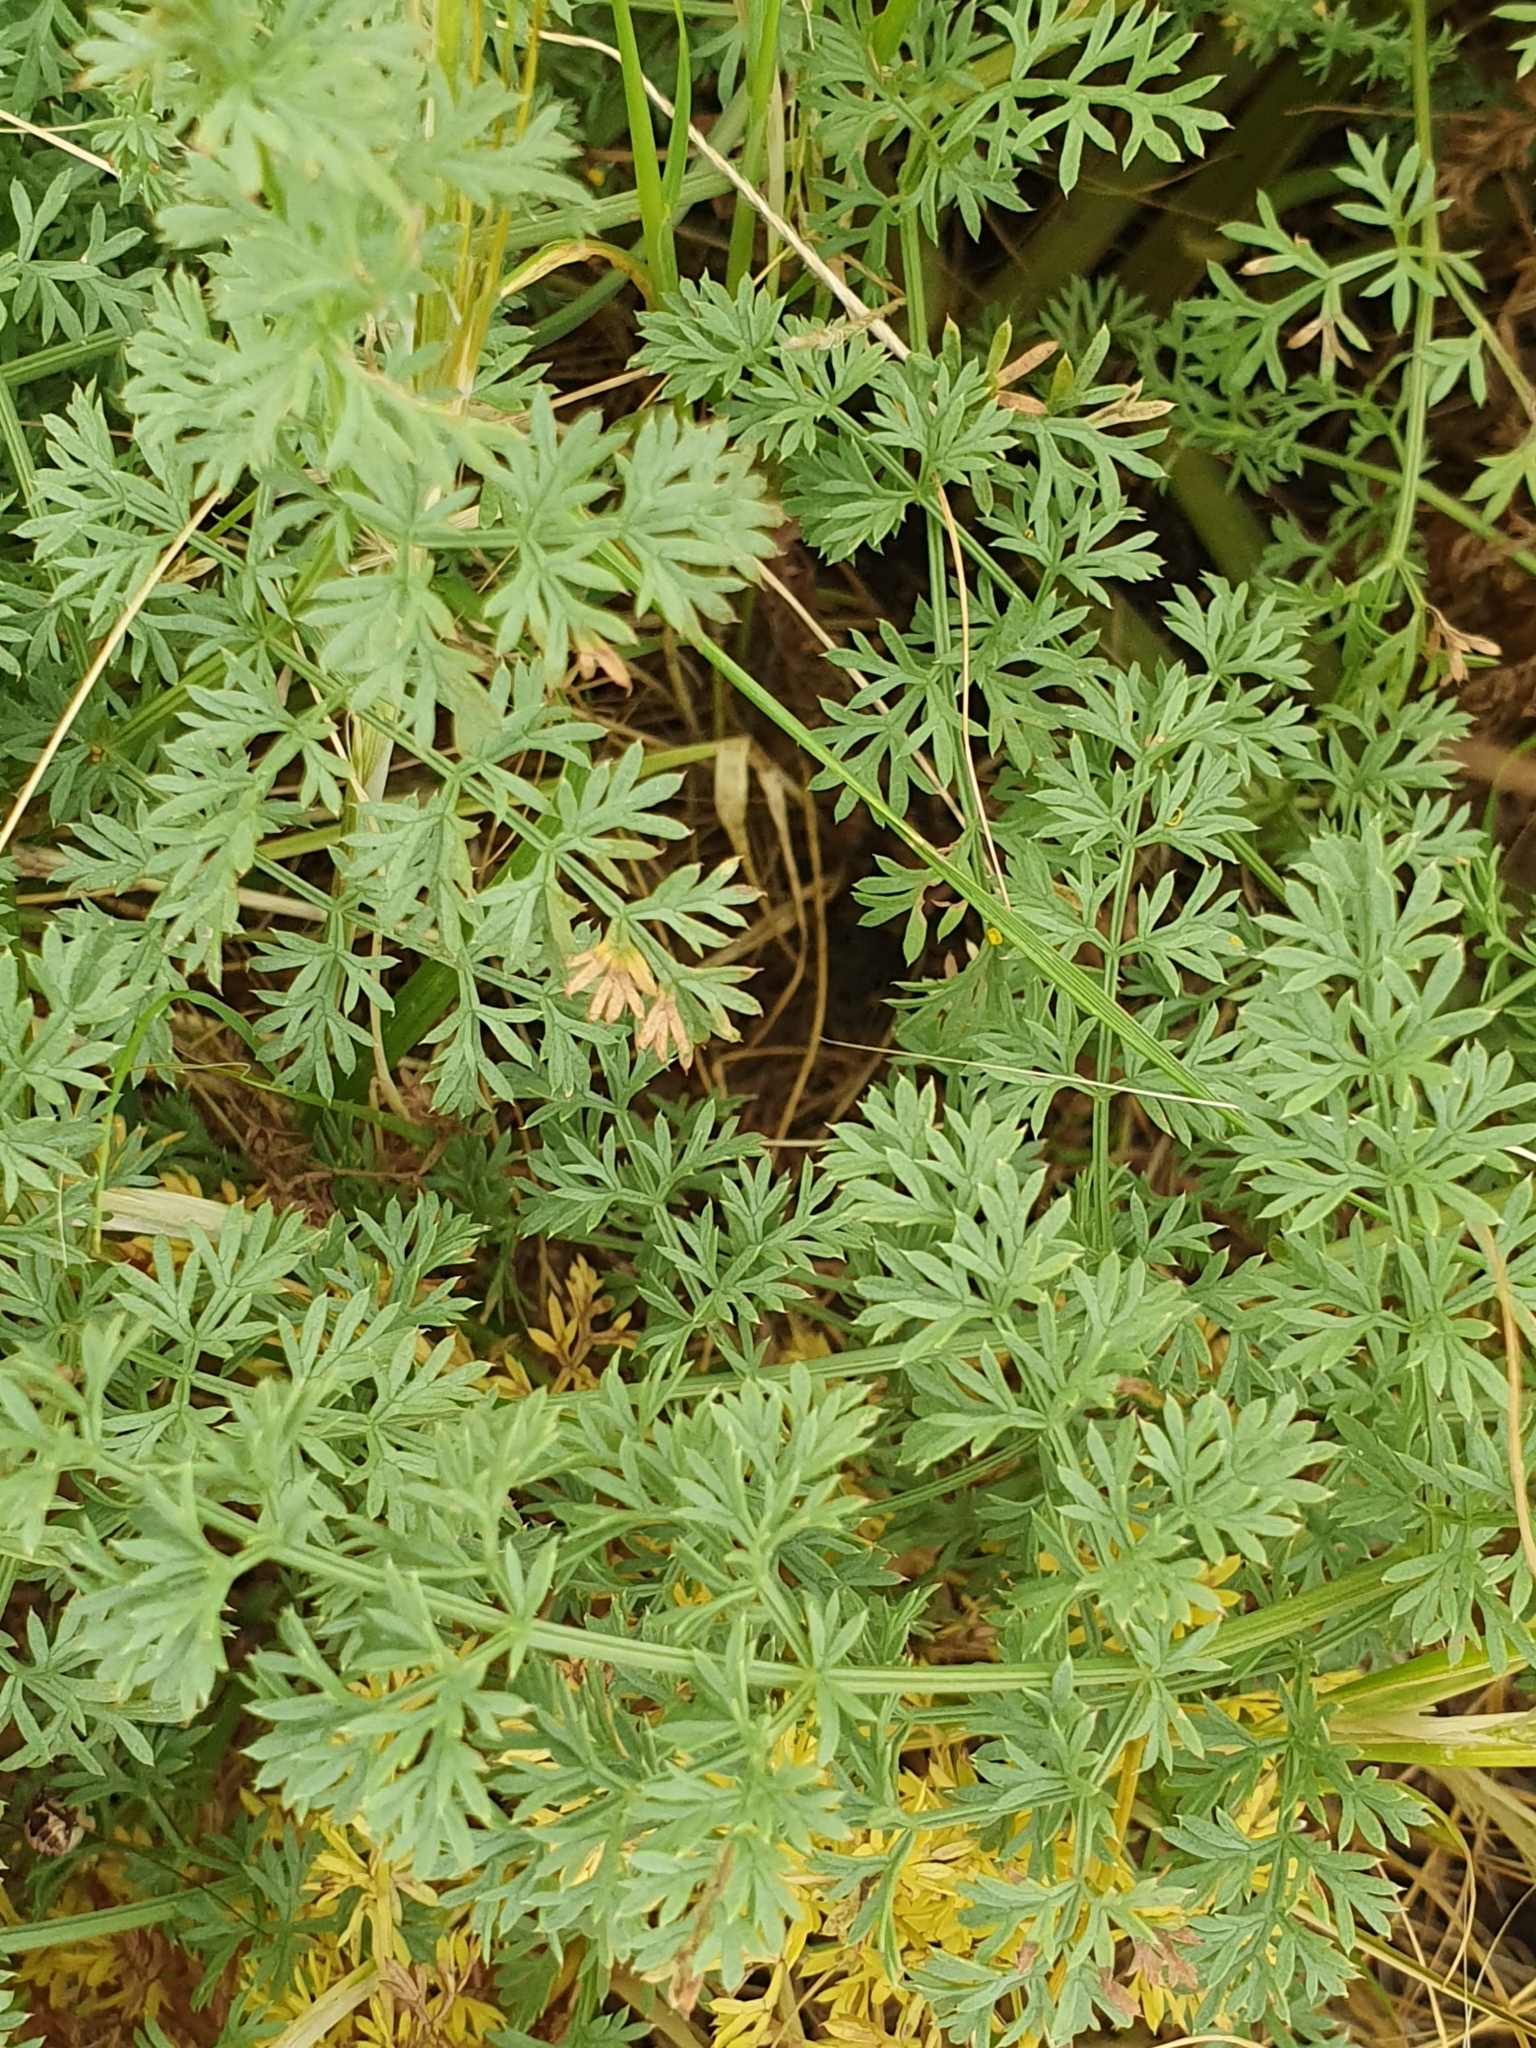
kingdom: Plantae
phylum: Tracheophyta
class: Magnoliopsida
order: Apiales
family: Apiaceae
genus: Ferulago
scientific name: Ferulago lutea
